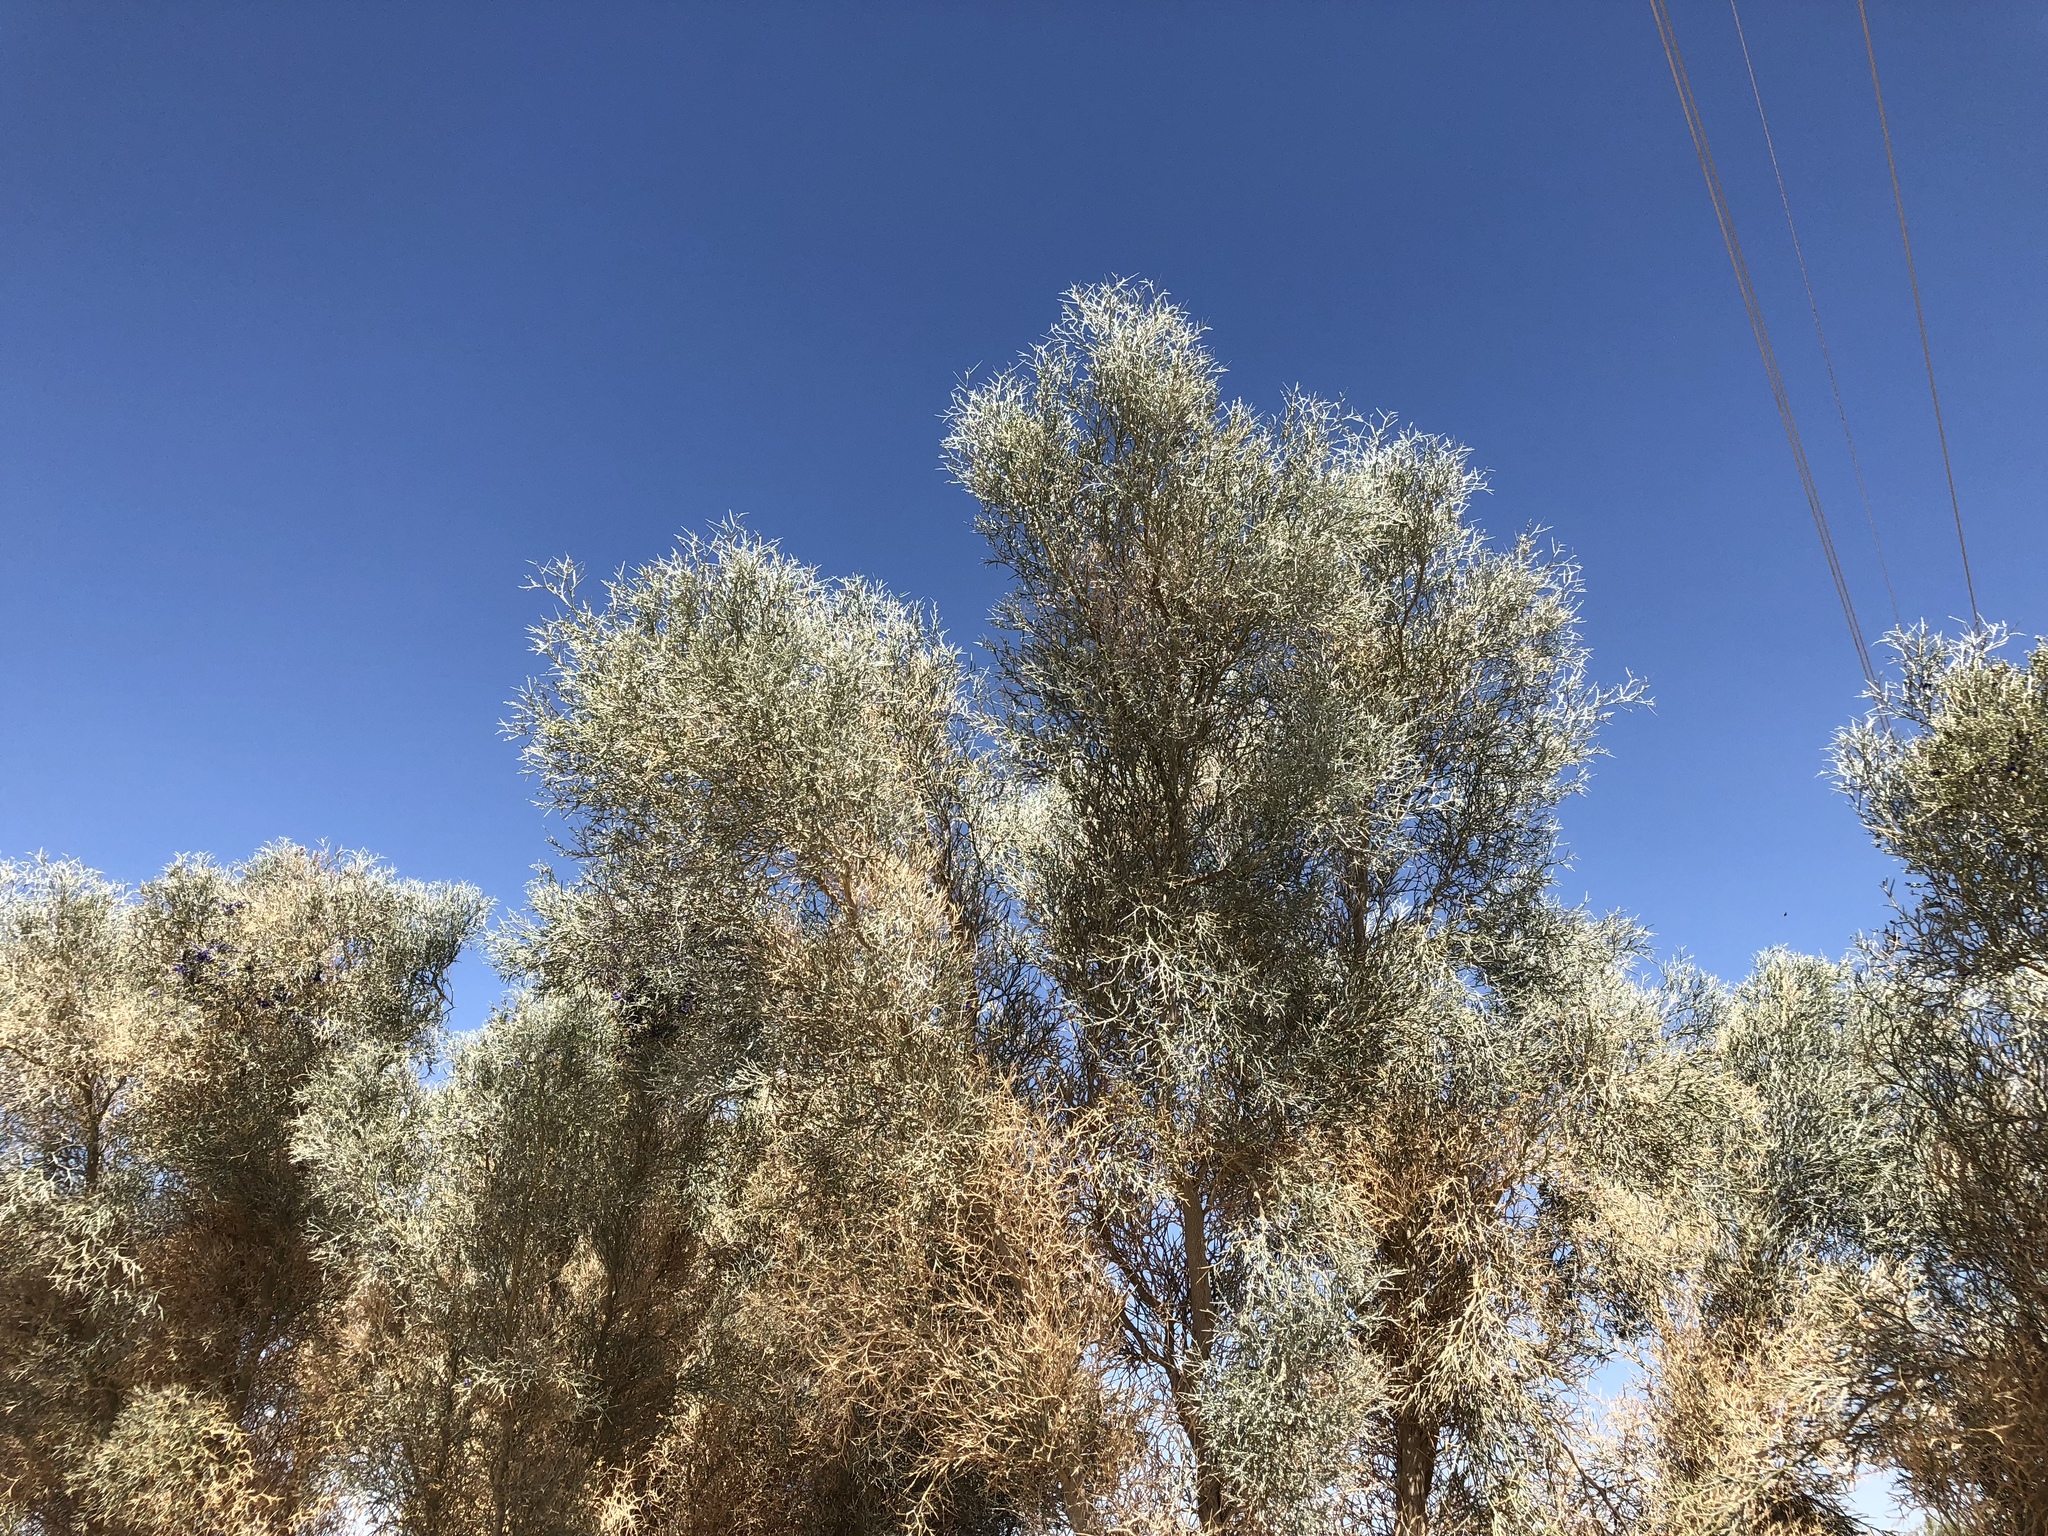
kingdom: Plantae
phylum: Tracheophyta
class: Magnoliopsida
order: Fabales
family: Fabaceae
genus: Psorothamnus
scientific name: Psorothamnus spinosus
